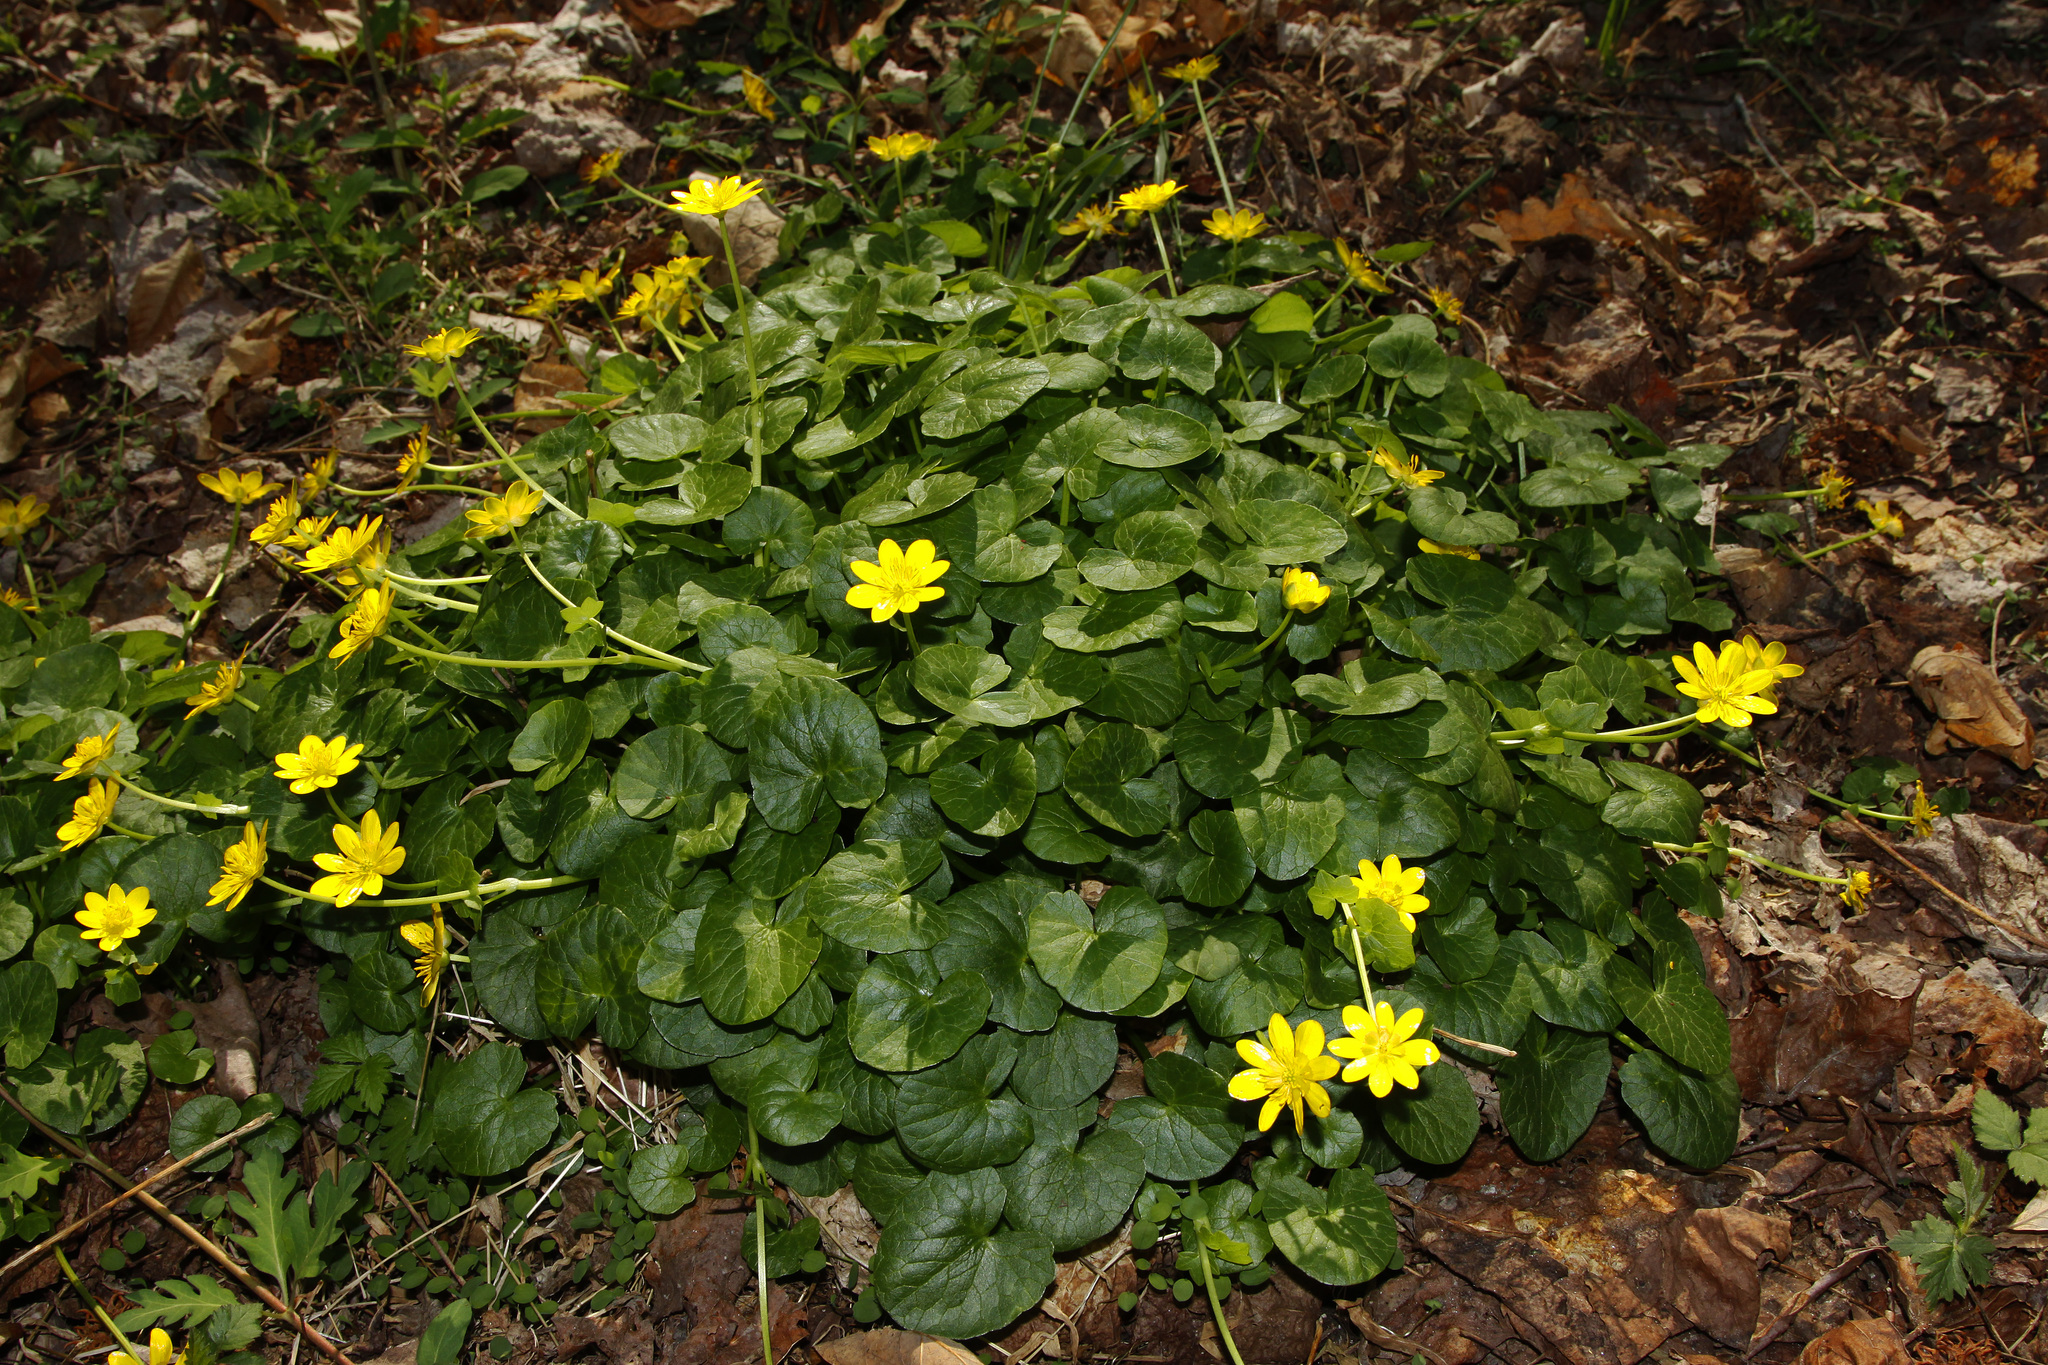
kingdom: Plantae
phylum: Tracheophyta
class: Magnoliopsida
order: Ranunculales
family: Ranunculaceae
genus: Ficaria
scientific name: Ficaria verna
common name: Lesser celandine
